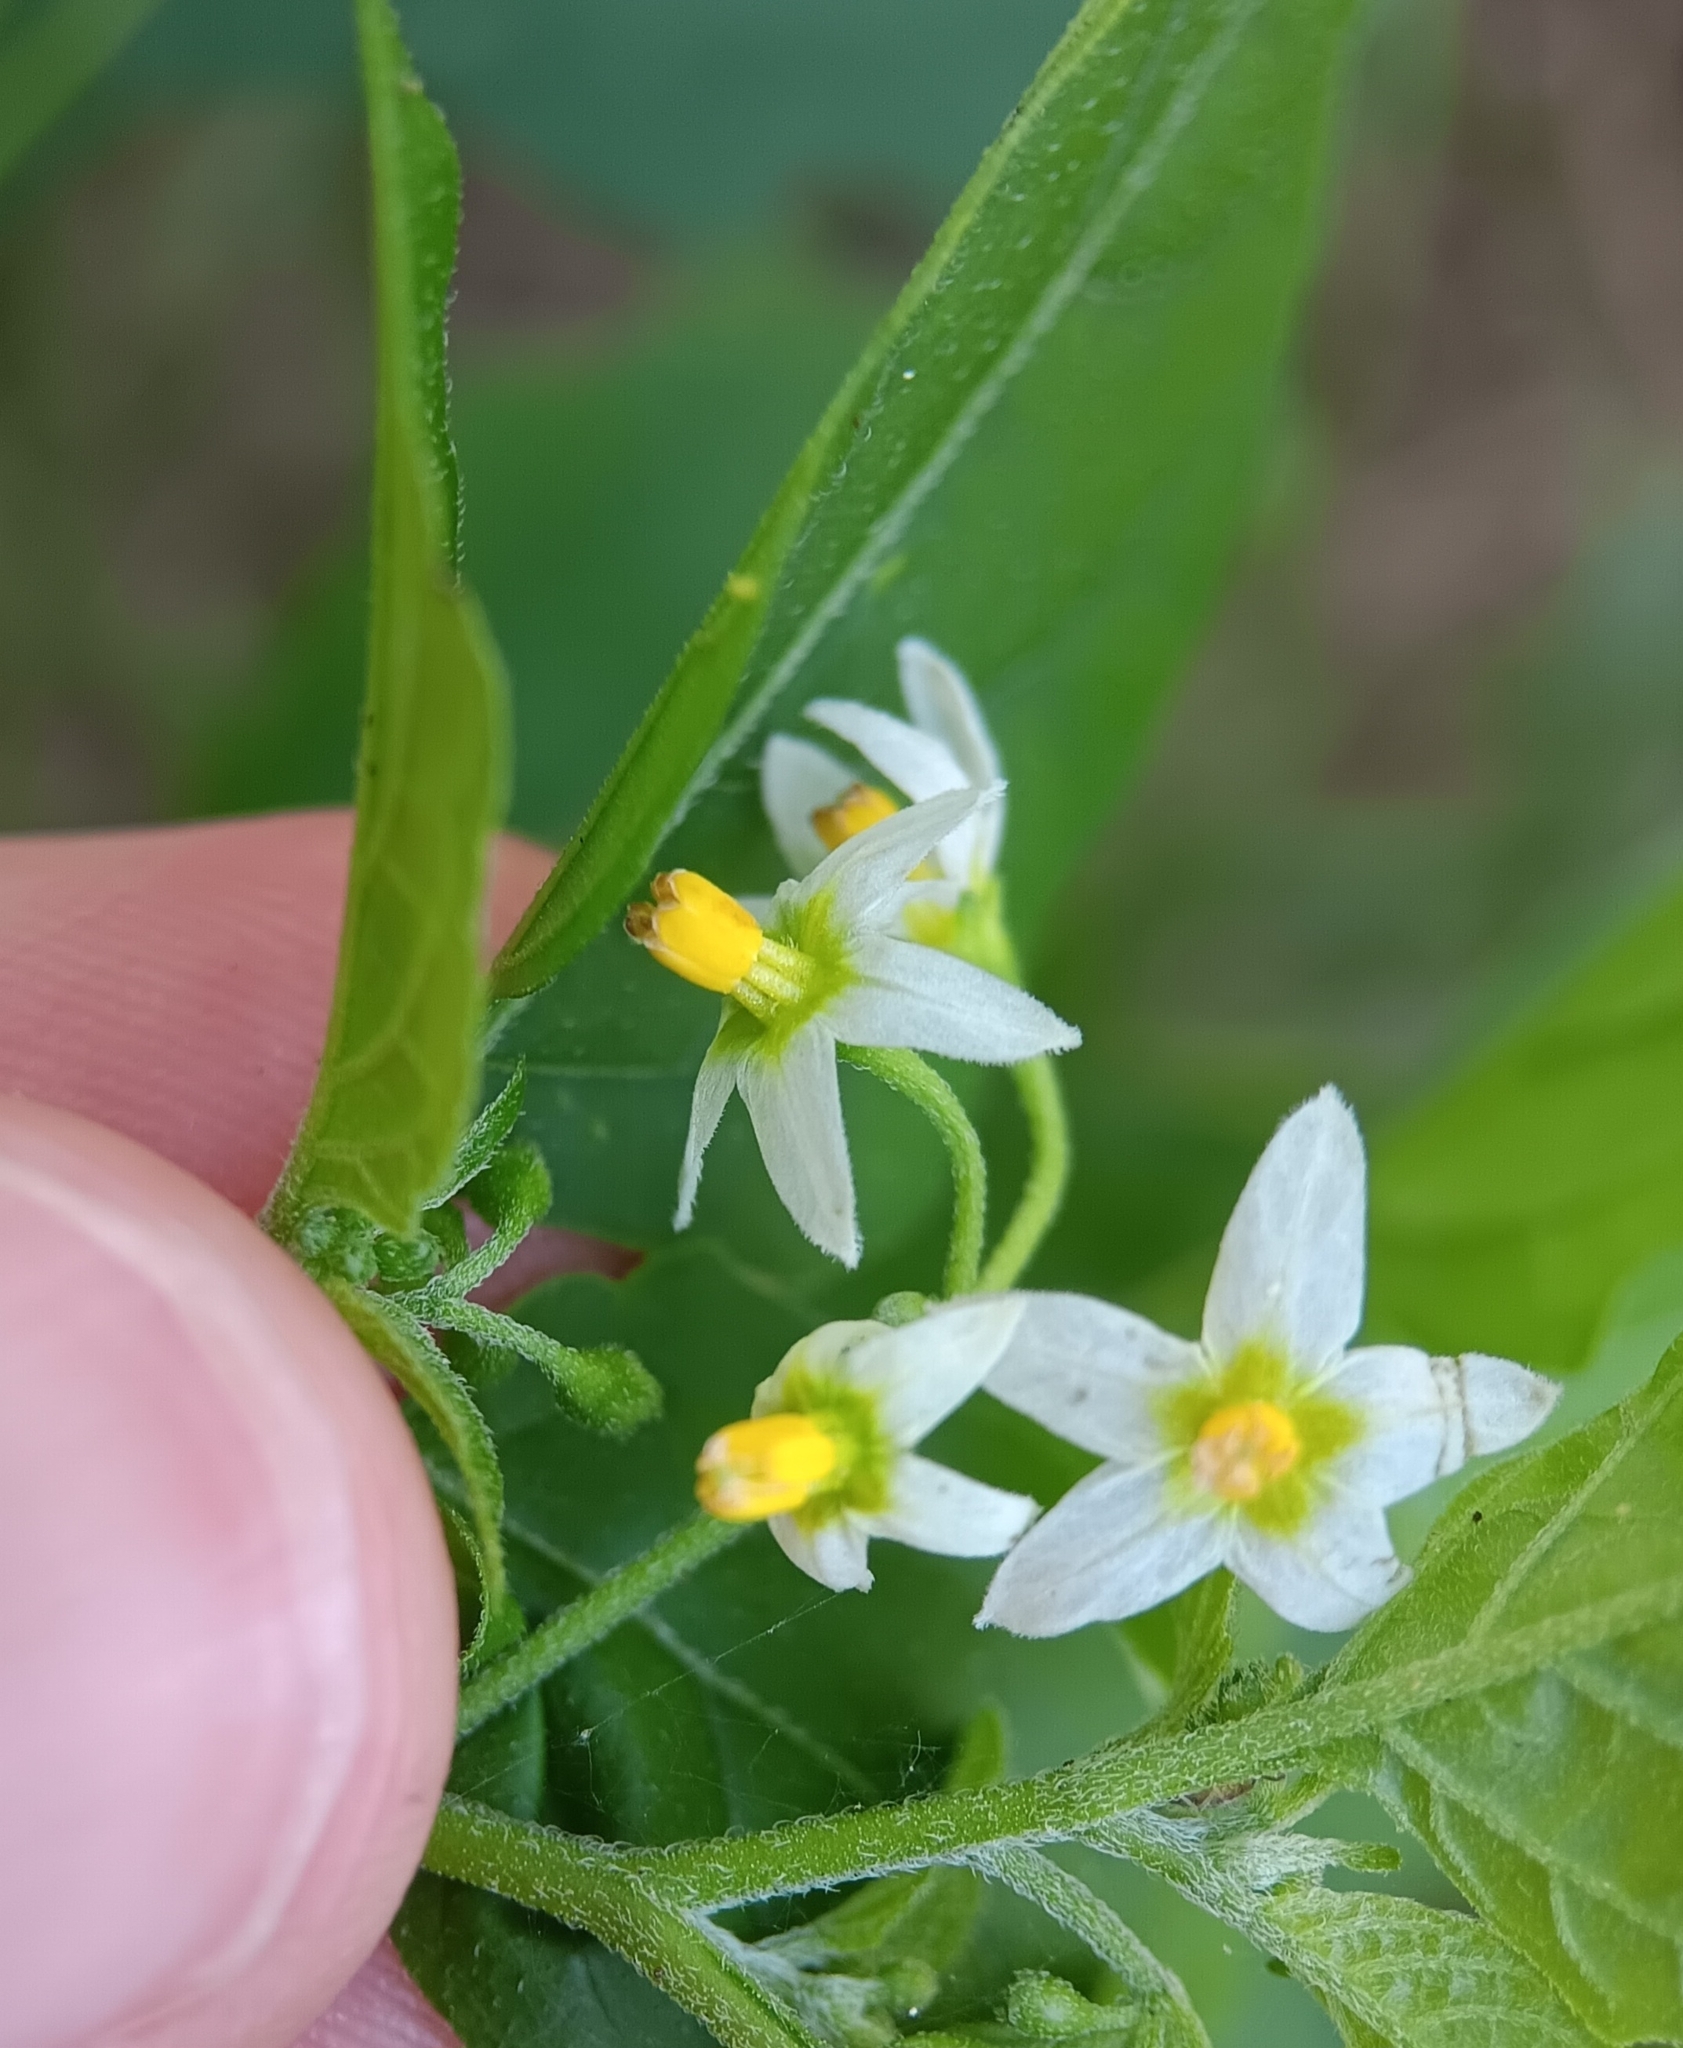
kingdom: Plantae
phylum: Tracheophyta
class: Magnoliopsida
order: Solanales
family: Solanaceae
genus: Solanum
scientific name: Solanum emulans
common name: Eastern black nightshade
